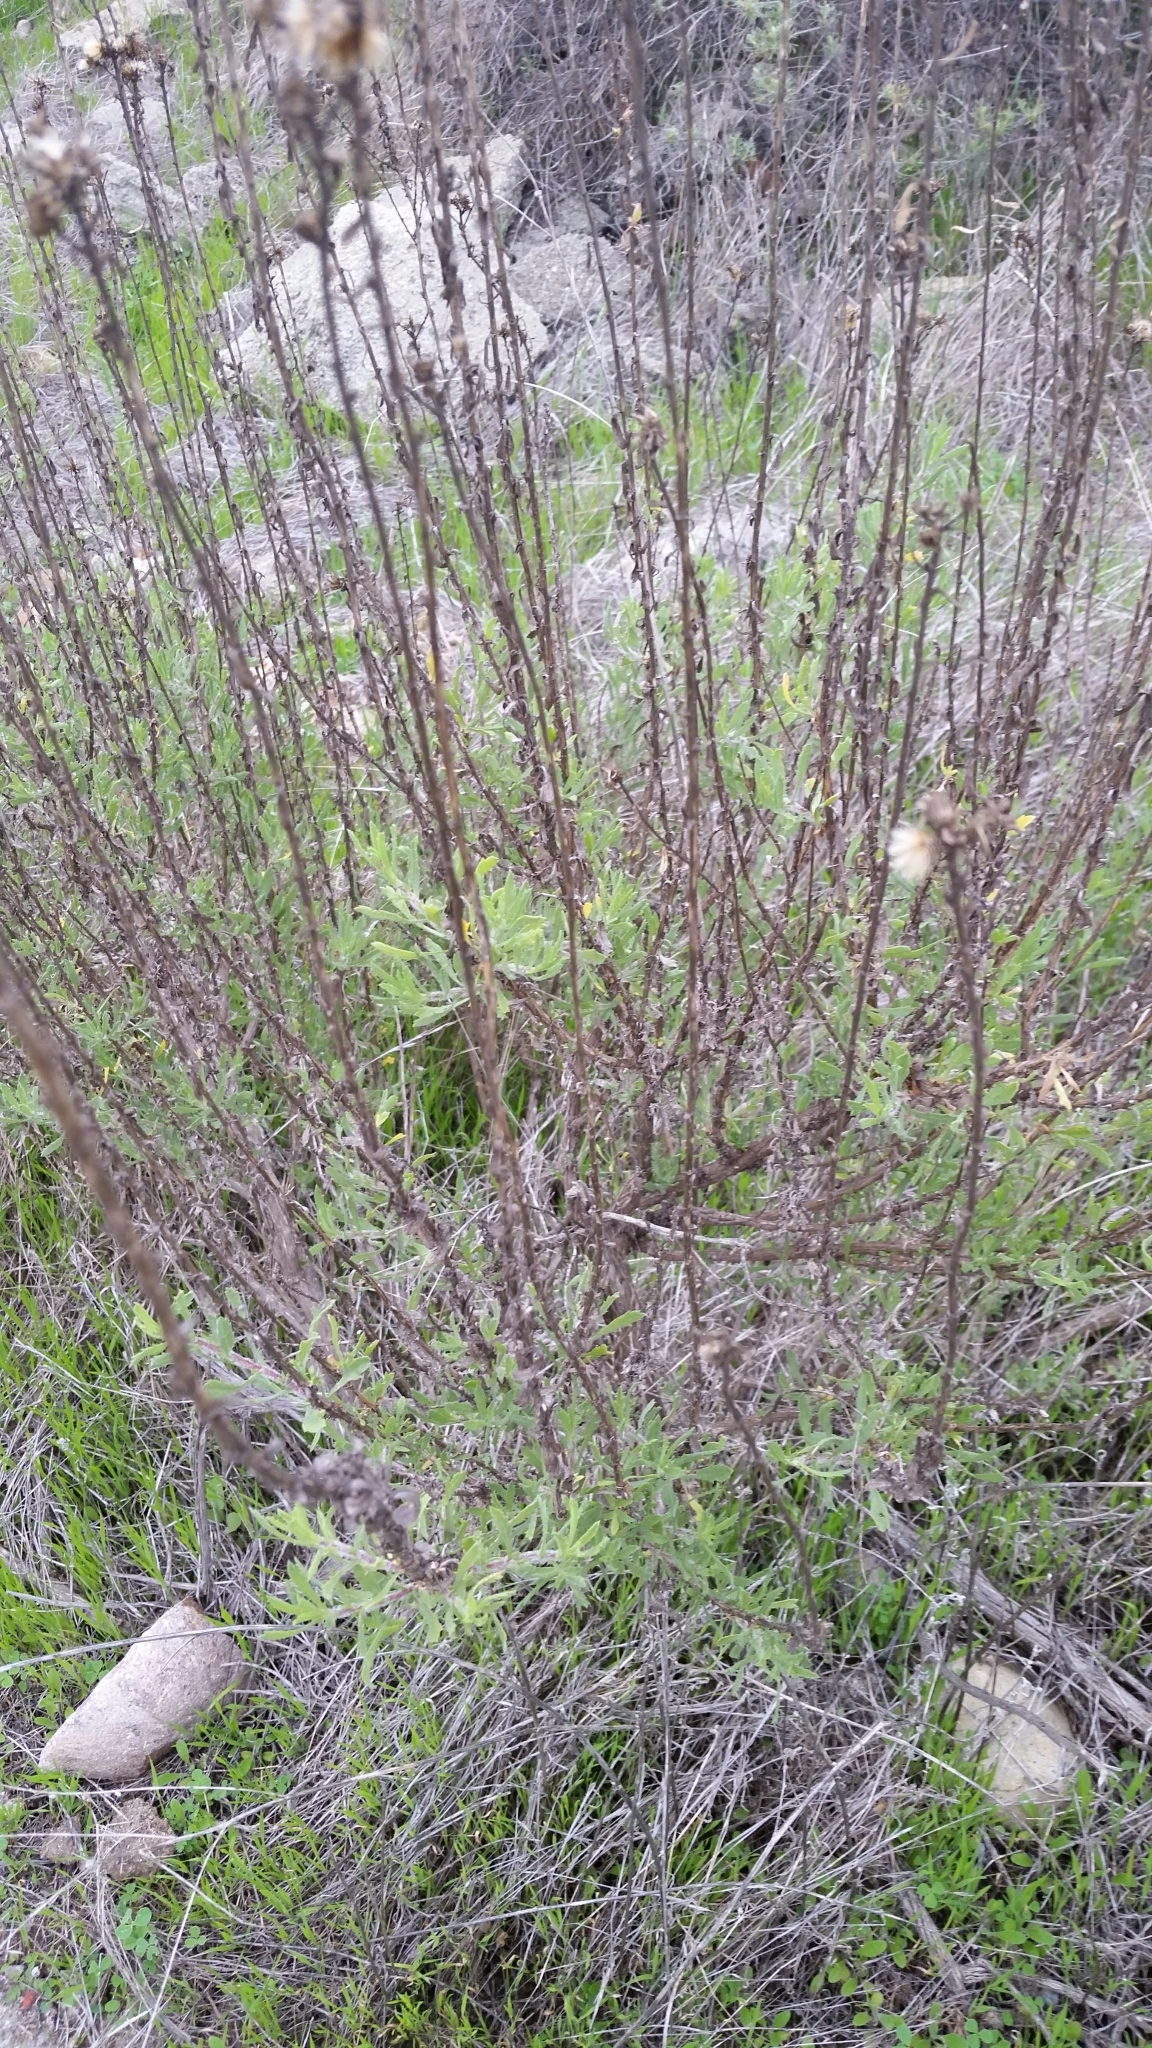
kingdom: Plantae
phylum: Tracheophyta
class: Magnoliopsida
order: Asterales
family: Asteraceae
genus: Isocoma
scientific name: Isocoma menziesii
